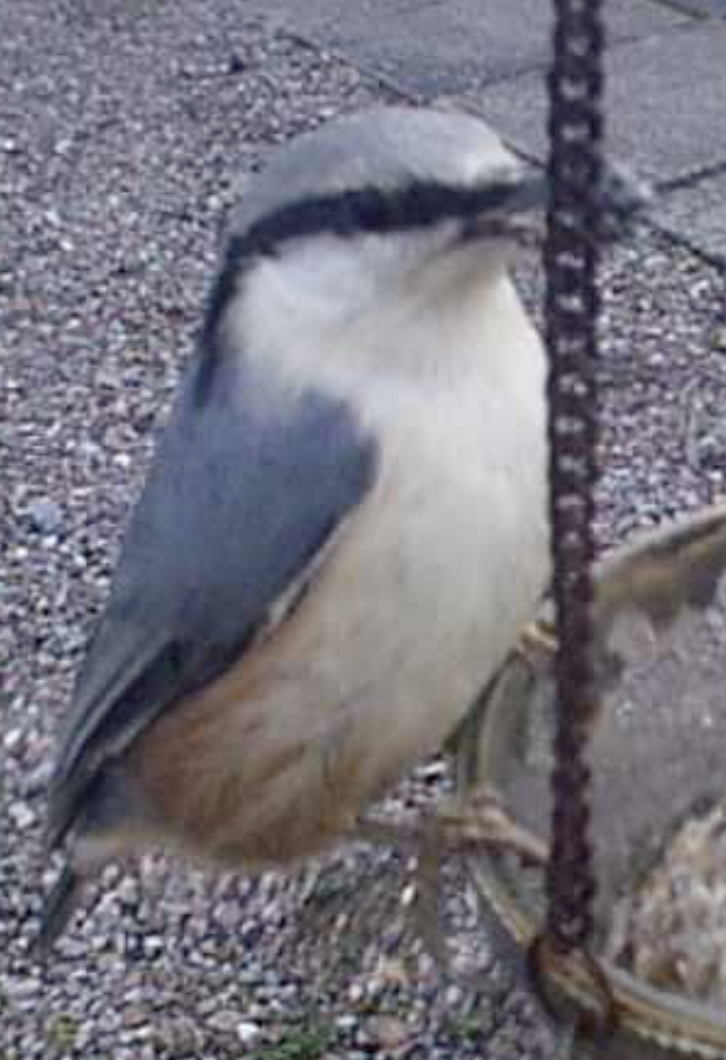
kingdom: Animalia
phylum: Chordata
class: Aves
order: Passeriformes
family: Sittidae
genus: Sitta
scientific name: Sitta europaea
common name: Eurasian nuthatch
